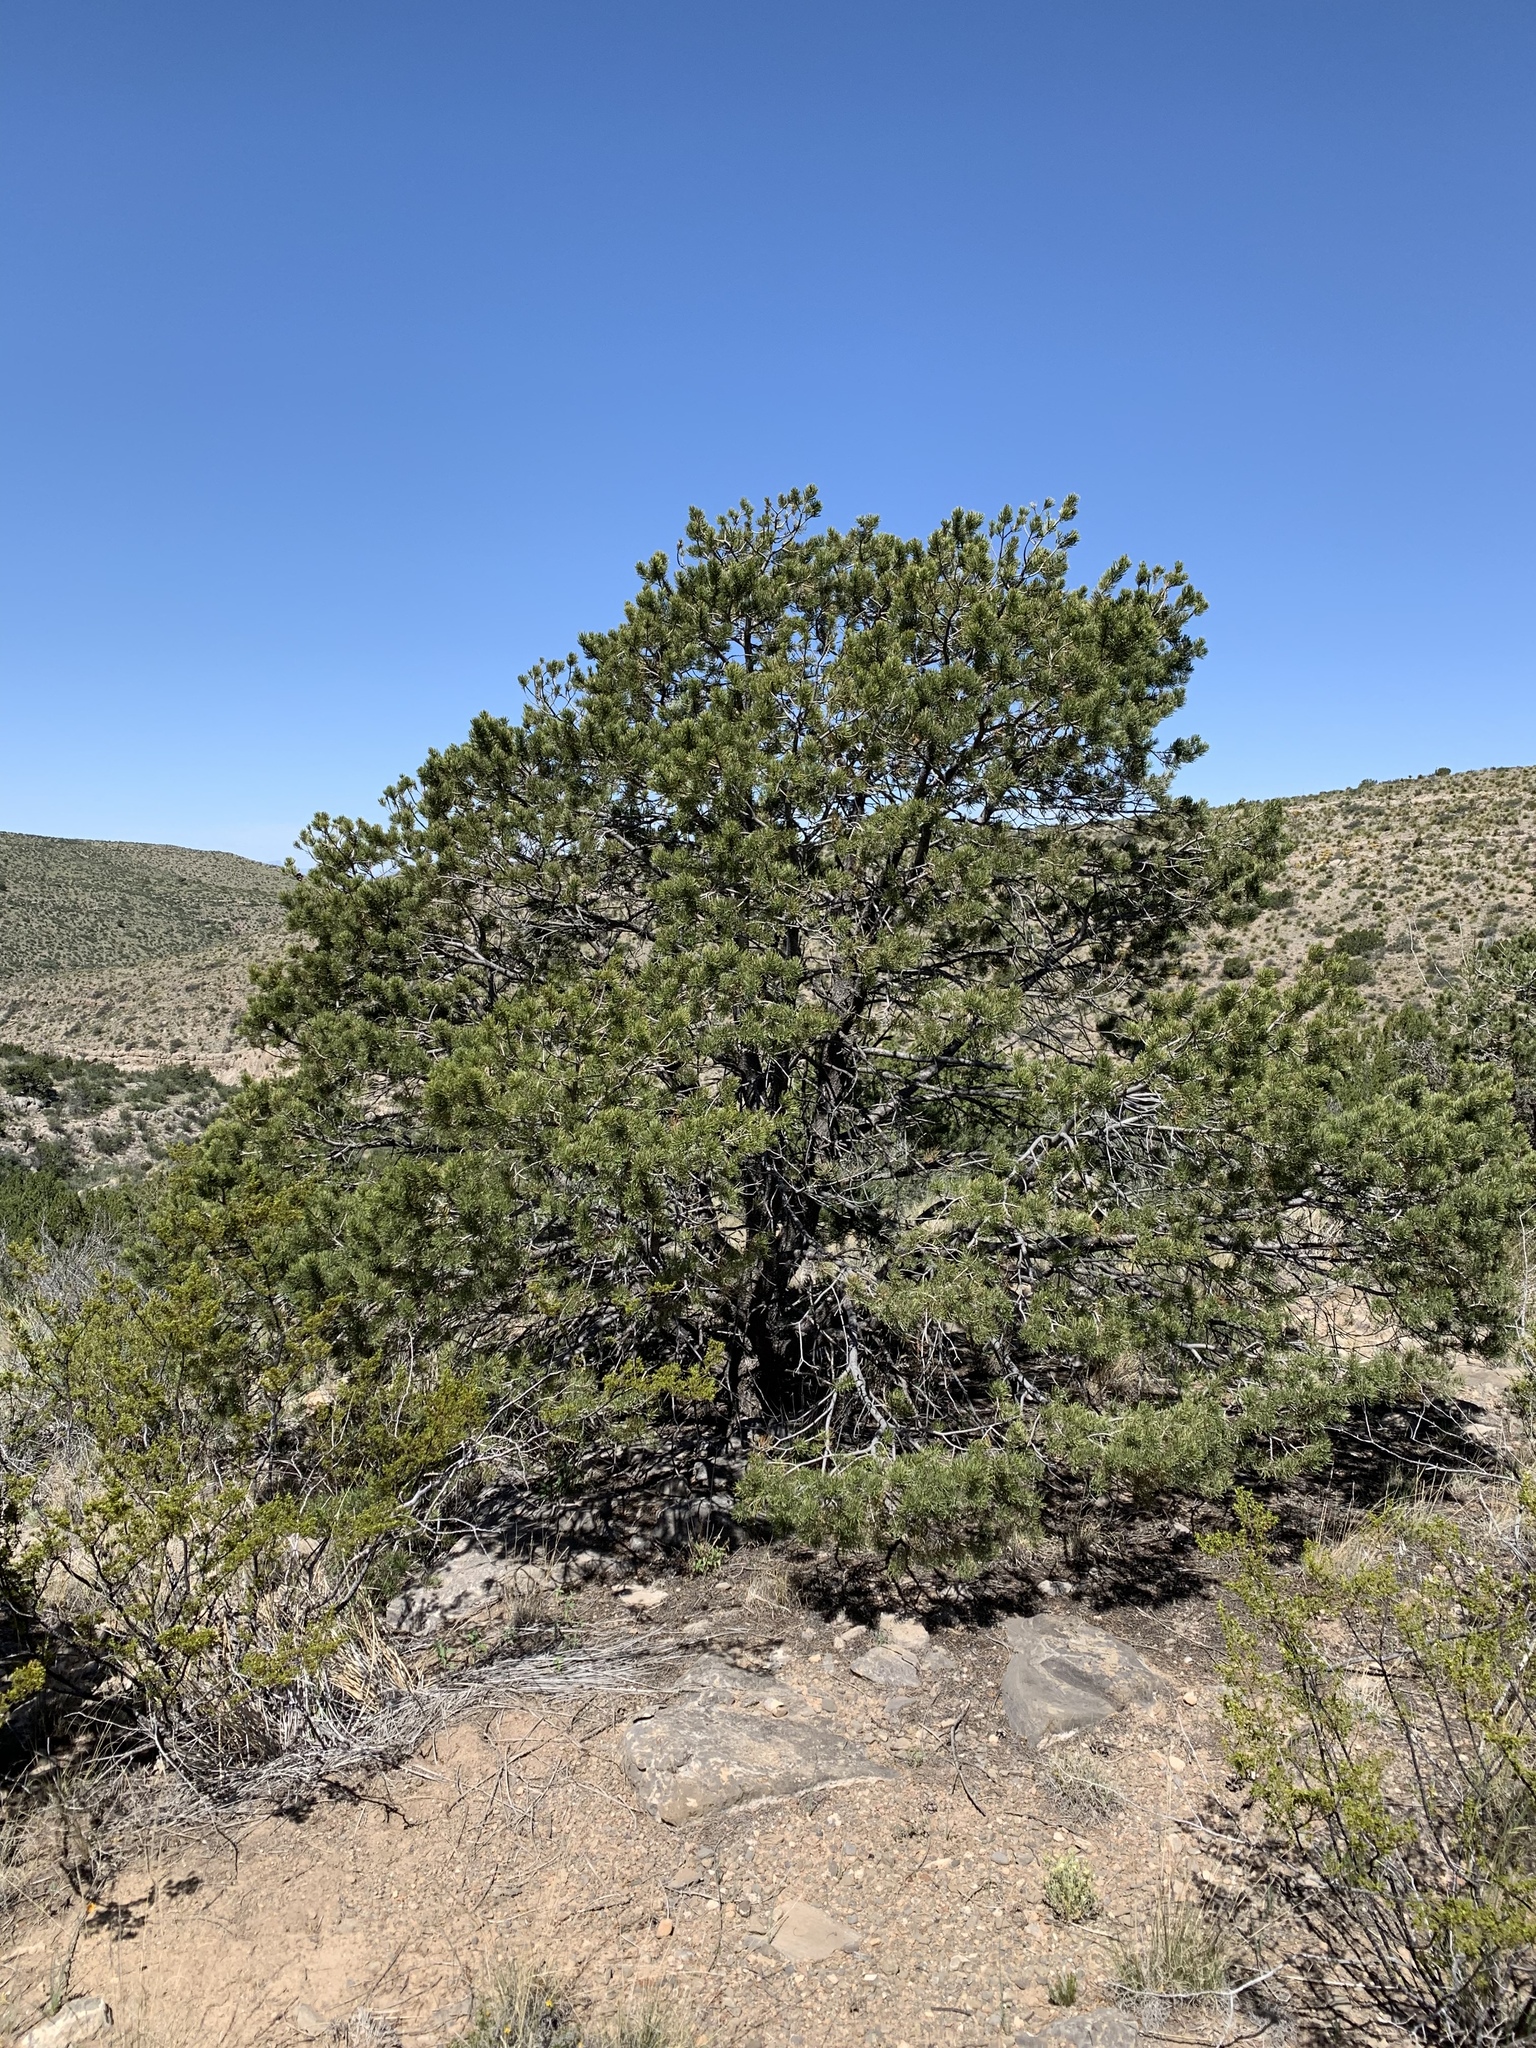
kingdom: Plantae
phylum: Tracheophyta
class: Pinopsida
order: Pinales
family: Pinaceae
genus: Pinus
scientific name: Pinus edulis
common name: Colorado pinyon
